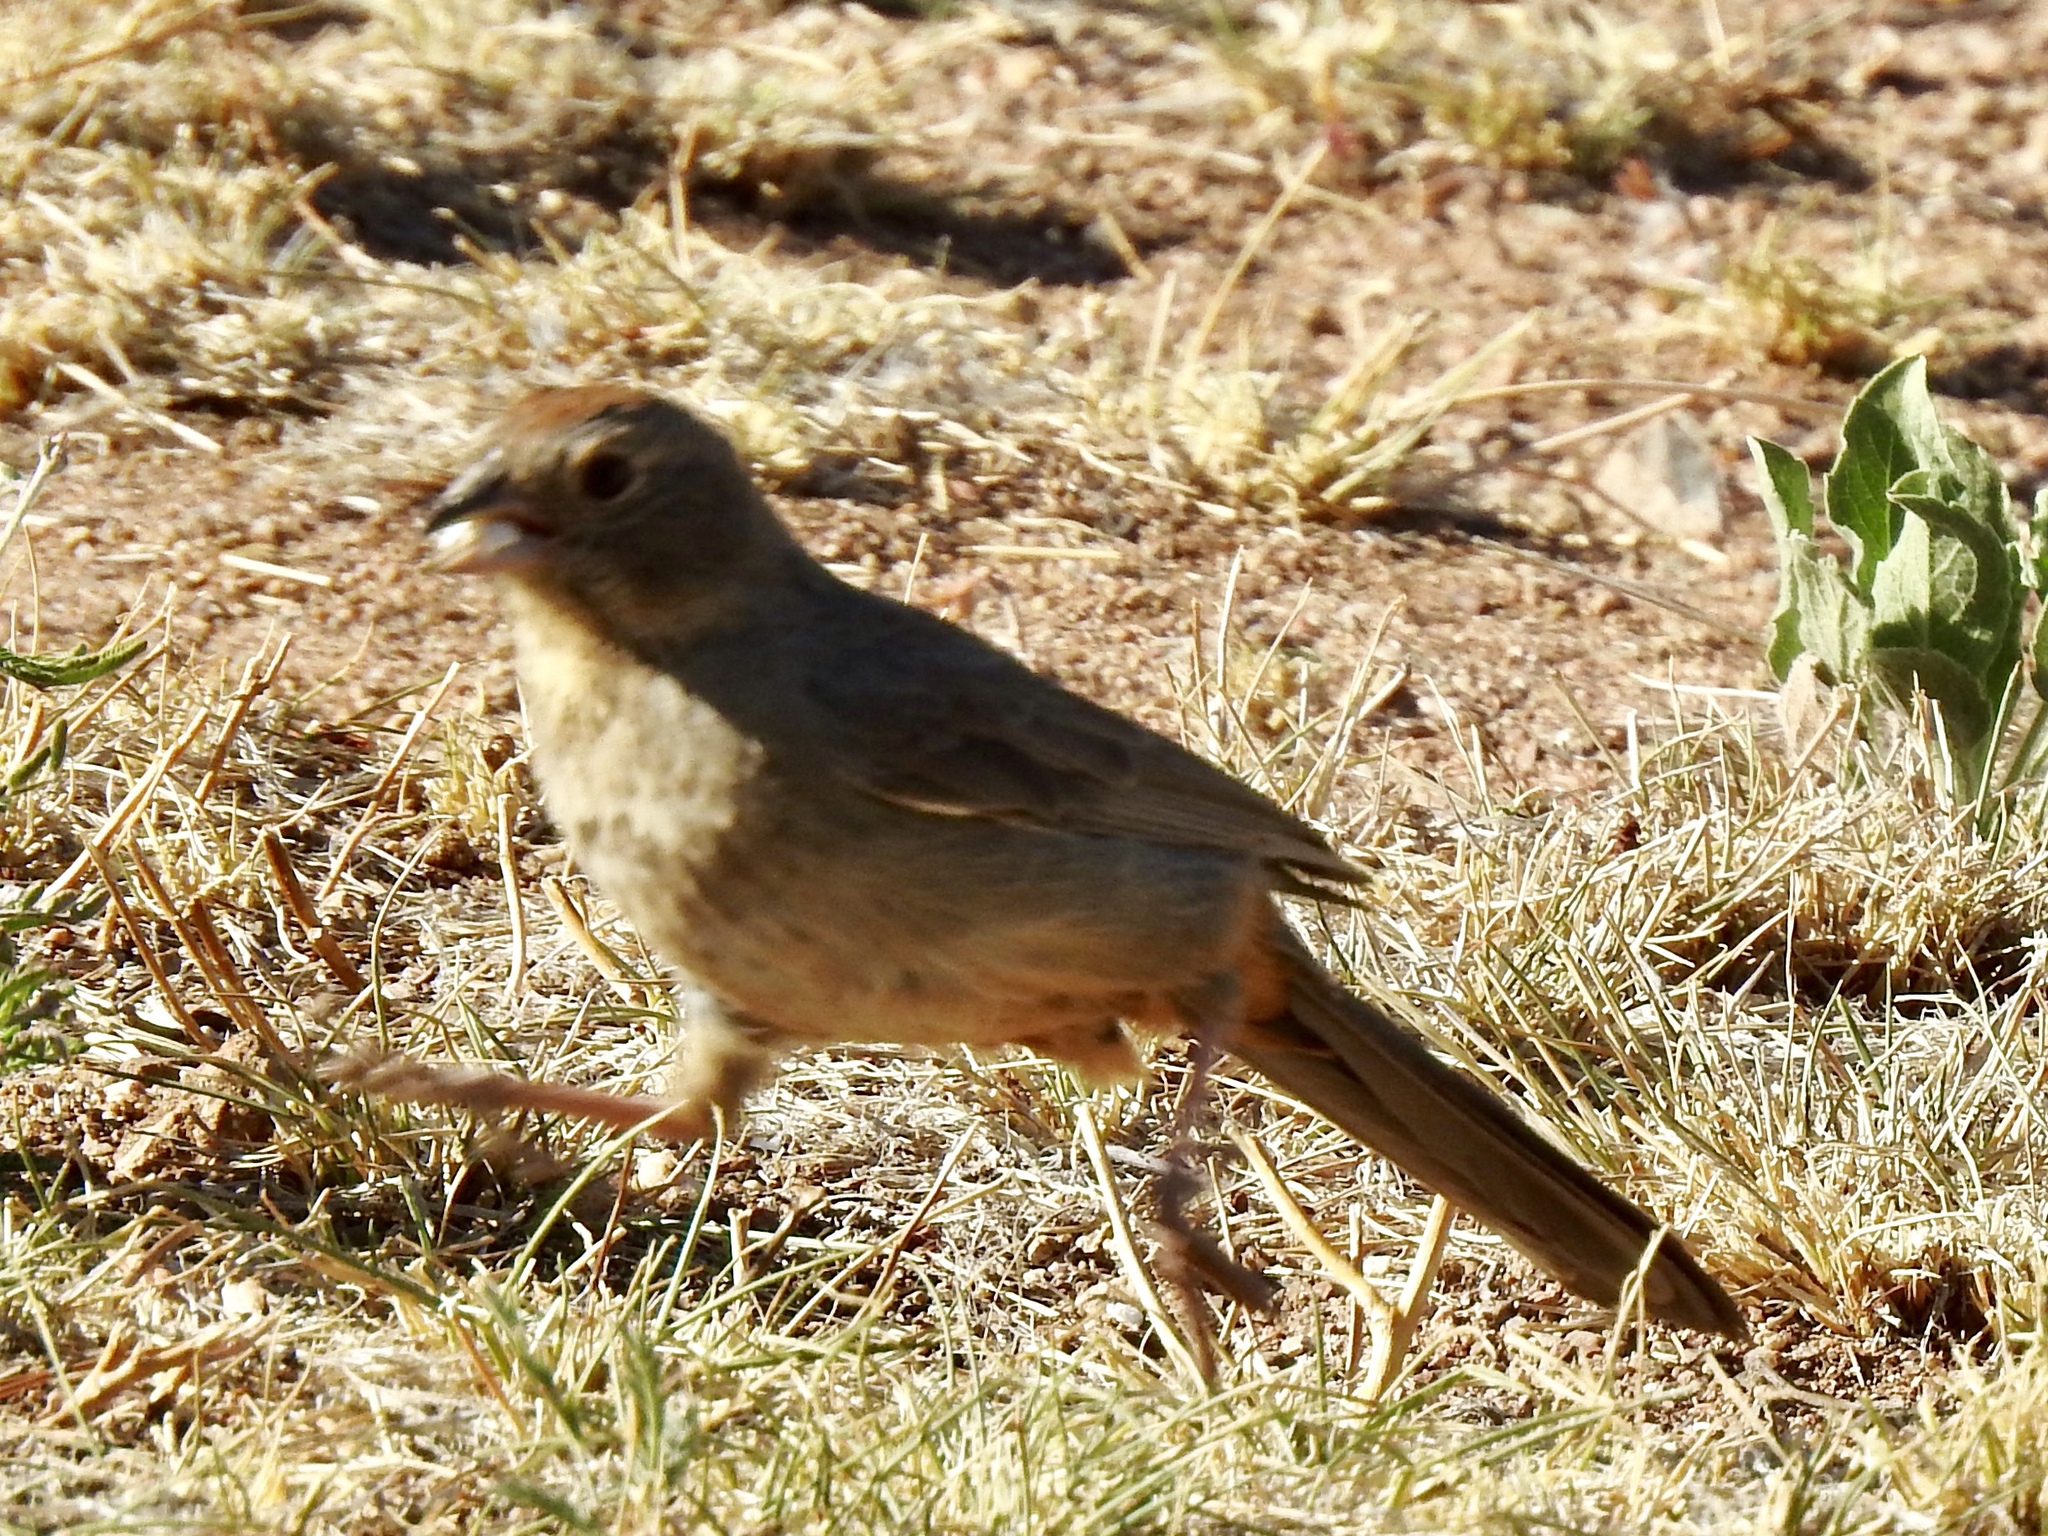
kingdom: Animalia
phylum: Chordata
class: Aves
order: Passeriformes
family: Passerellidae
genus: Melozone
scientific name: Melozone fusca
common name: Canyon towhee
